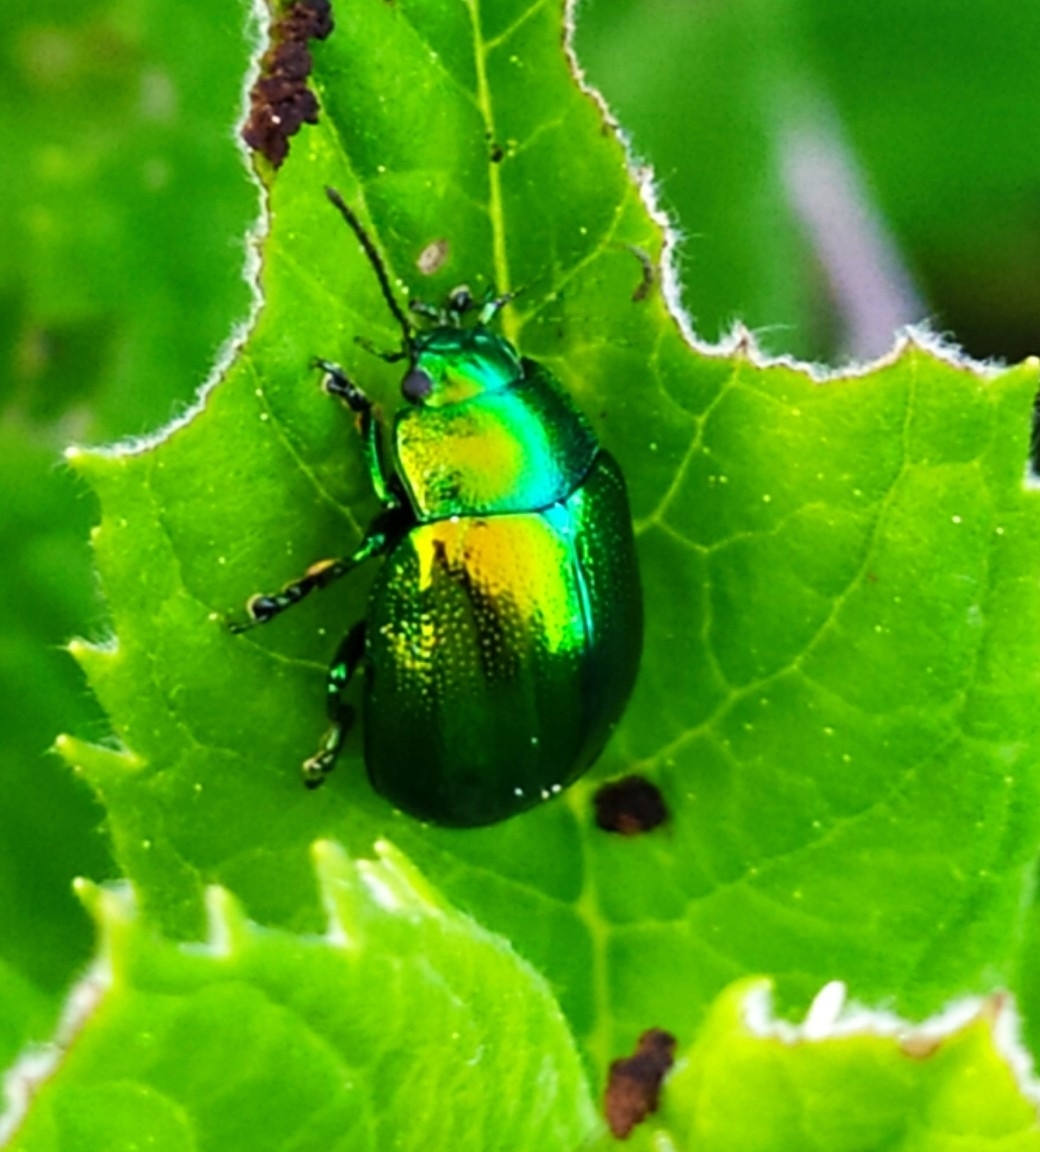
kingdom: Animalia
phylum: Arthropoda
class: Insecta
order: Coleoptera
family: Chrysomelidae
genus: Chrysolina
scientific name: Chrysolina herbacea
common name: Mint leaf beatle
